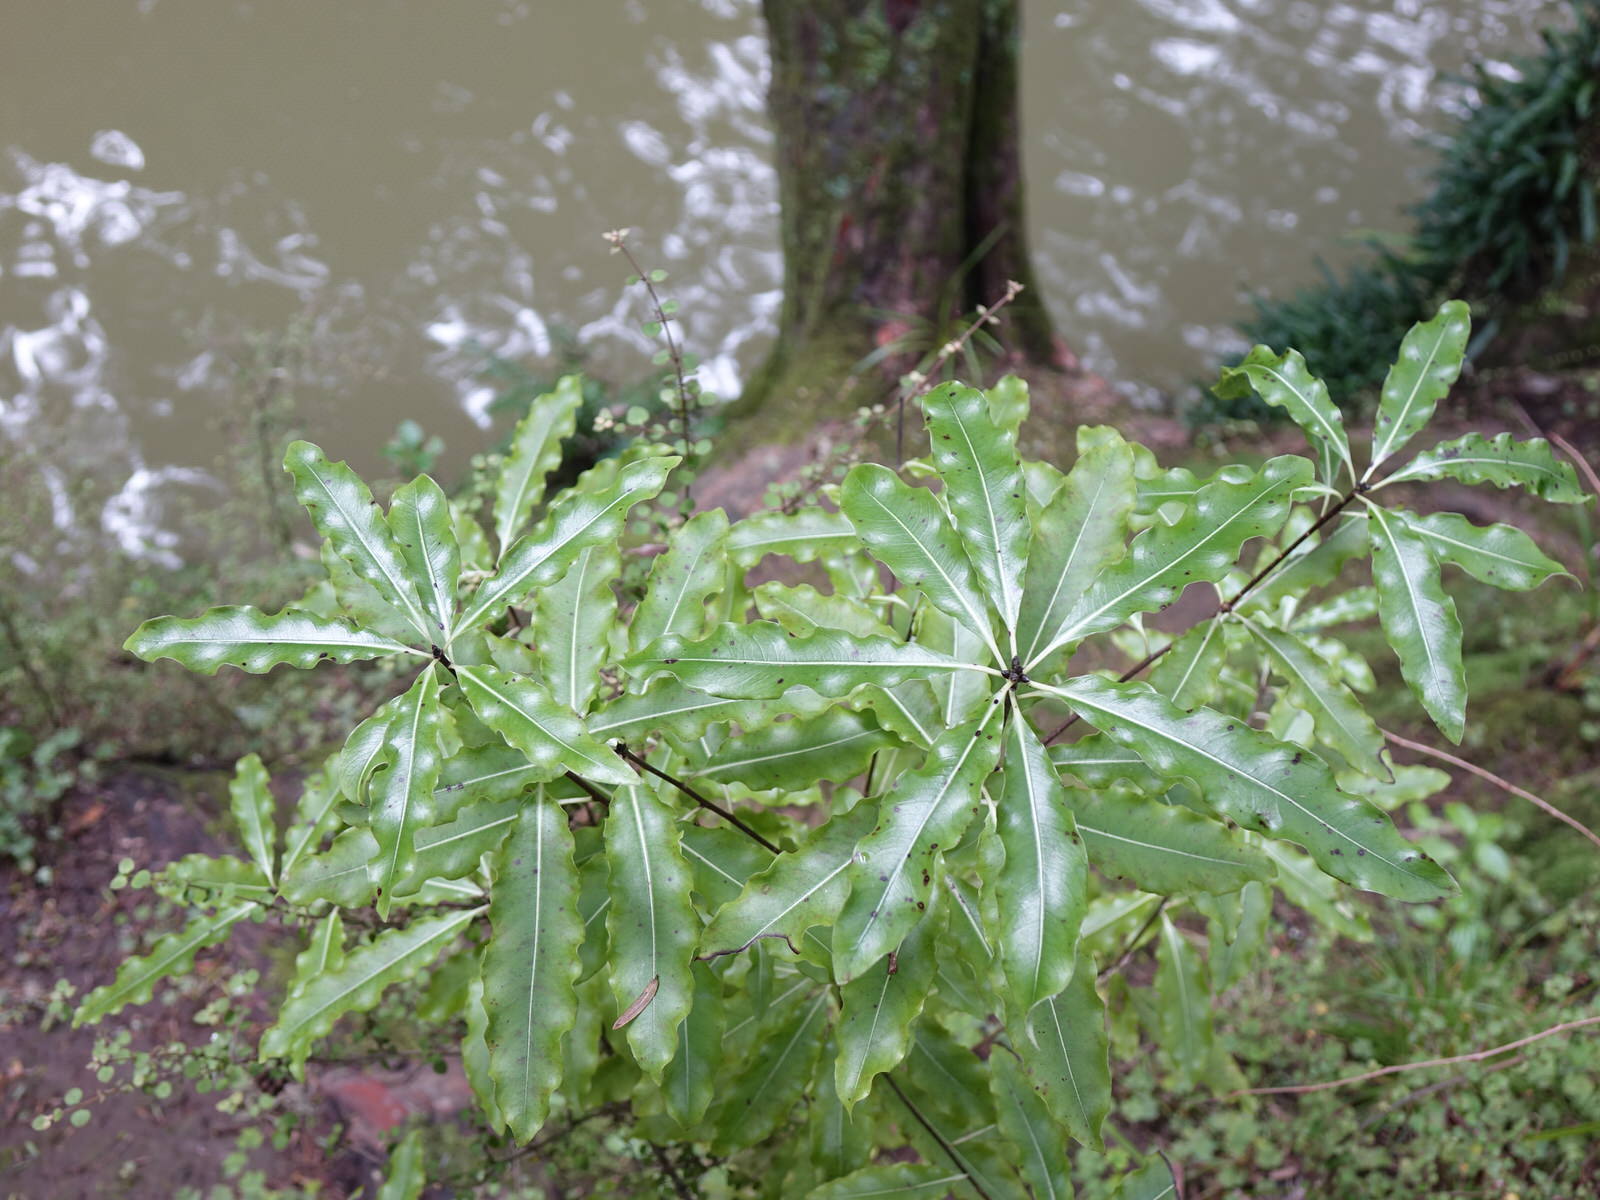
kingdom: Plantae
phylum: Tracheophyta
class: Magnoliopsida
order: Apiales
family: Pittosporaceae
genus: Pittosporum
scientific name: Pittosporum eugenioides
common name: Lemonwood
